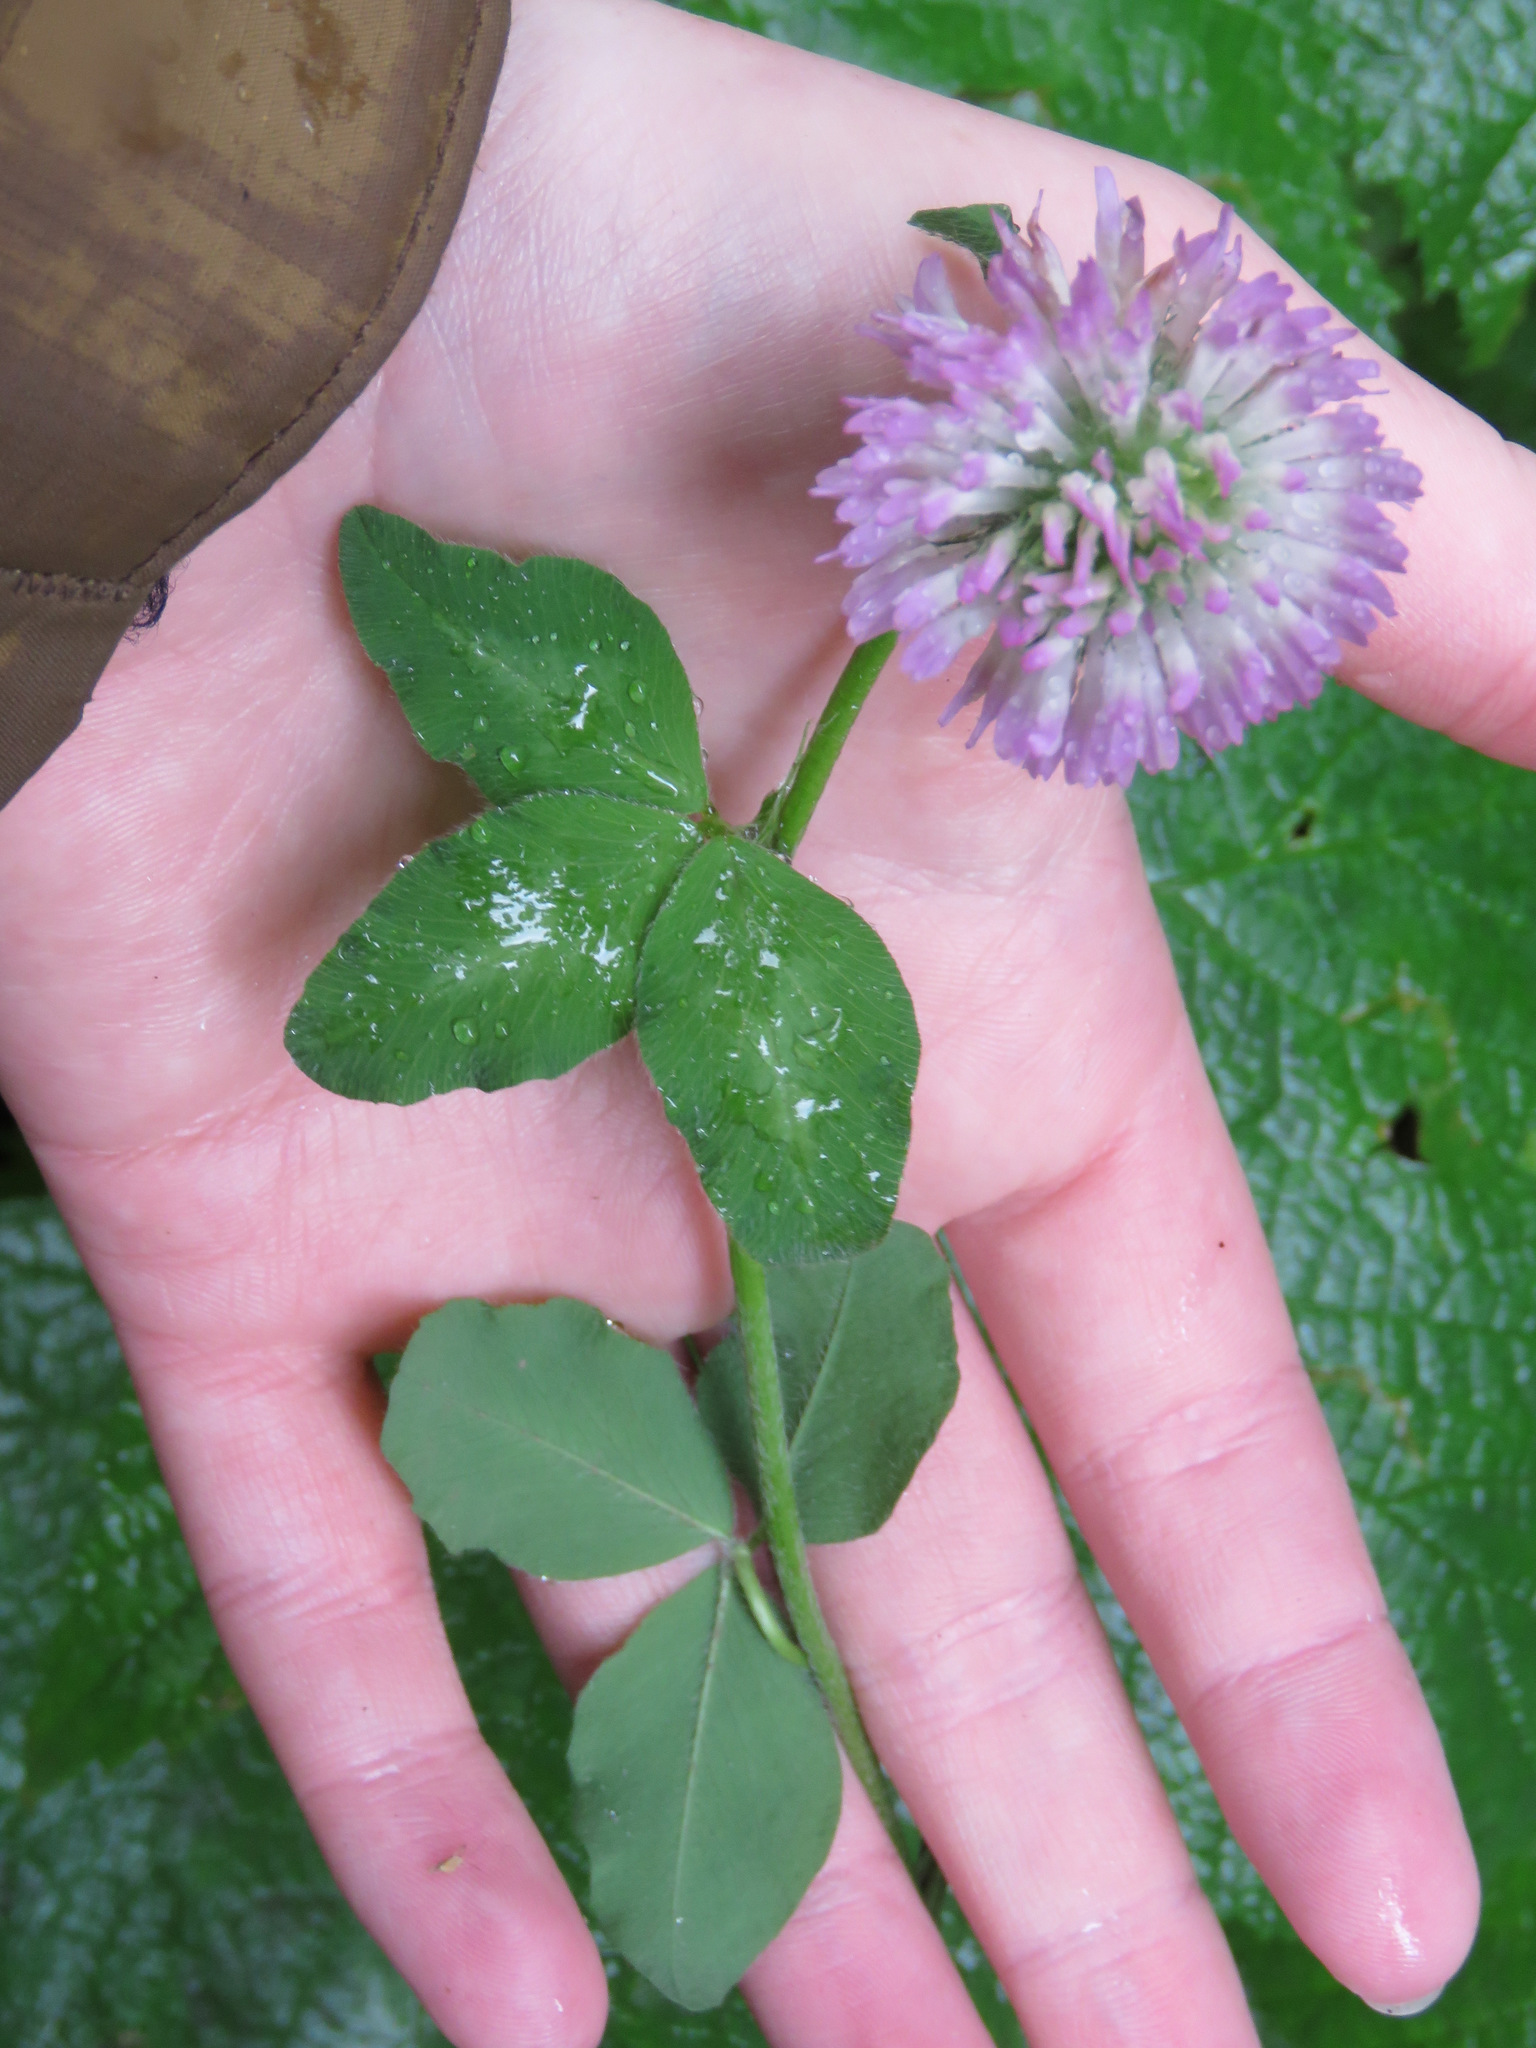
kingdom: Plantae
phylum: Tracheophyta
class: Magnoliopsida
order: Fabales
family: Fabaceae
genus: Trifolium
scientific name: Trifolium pratense
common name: Red clover
